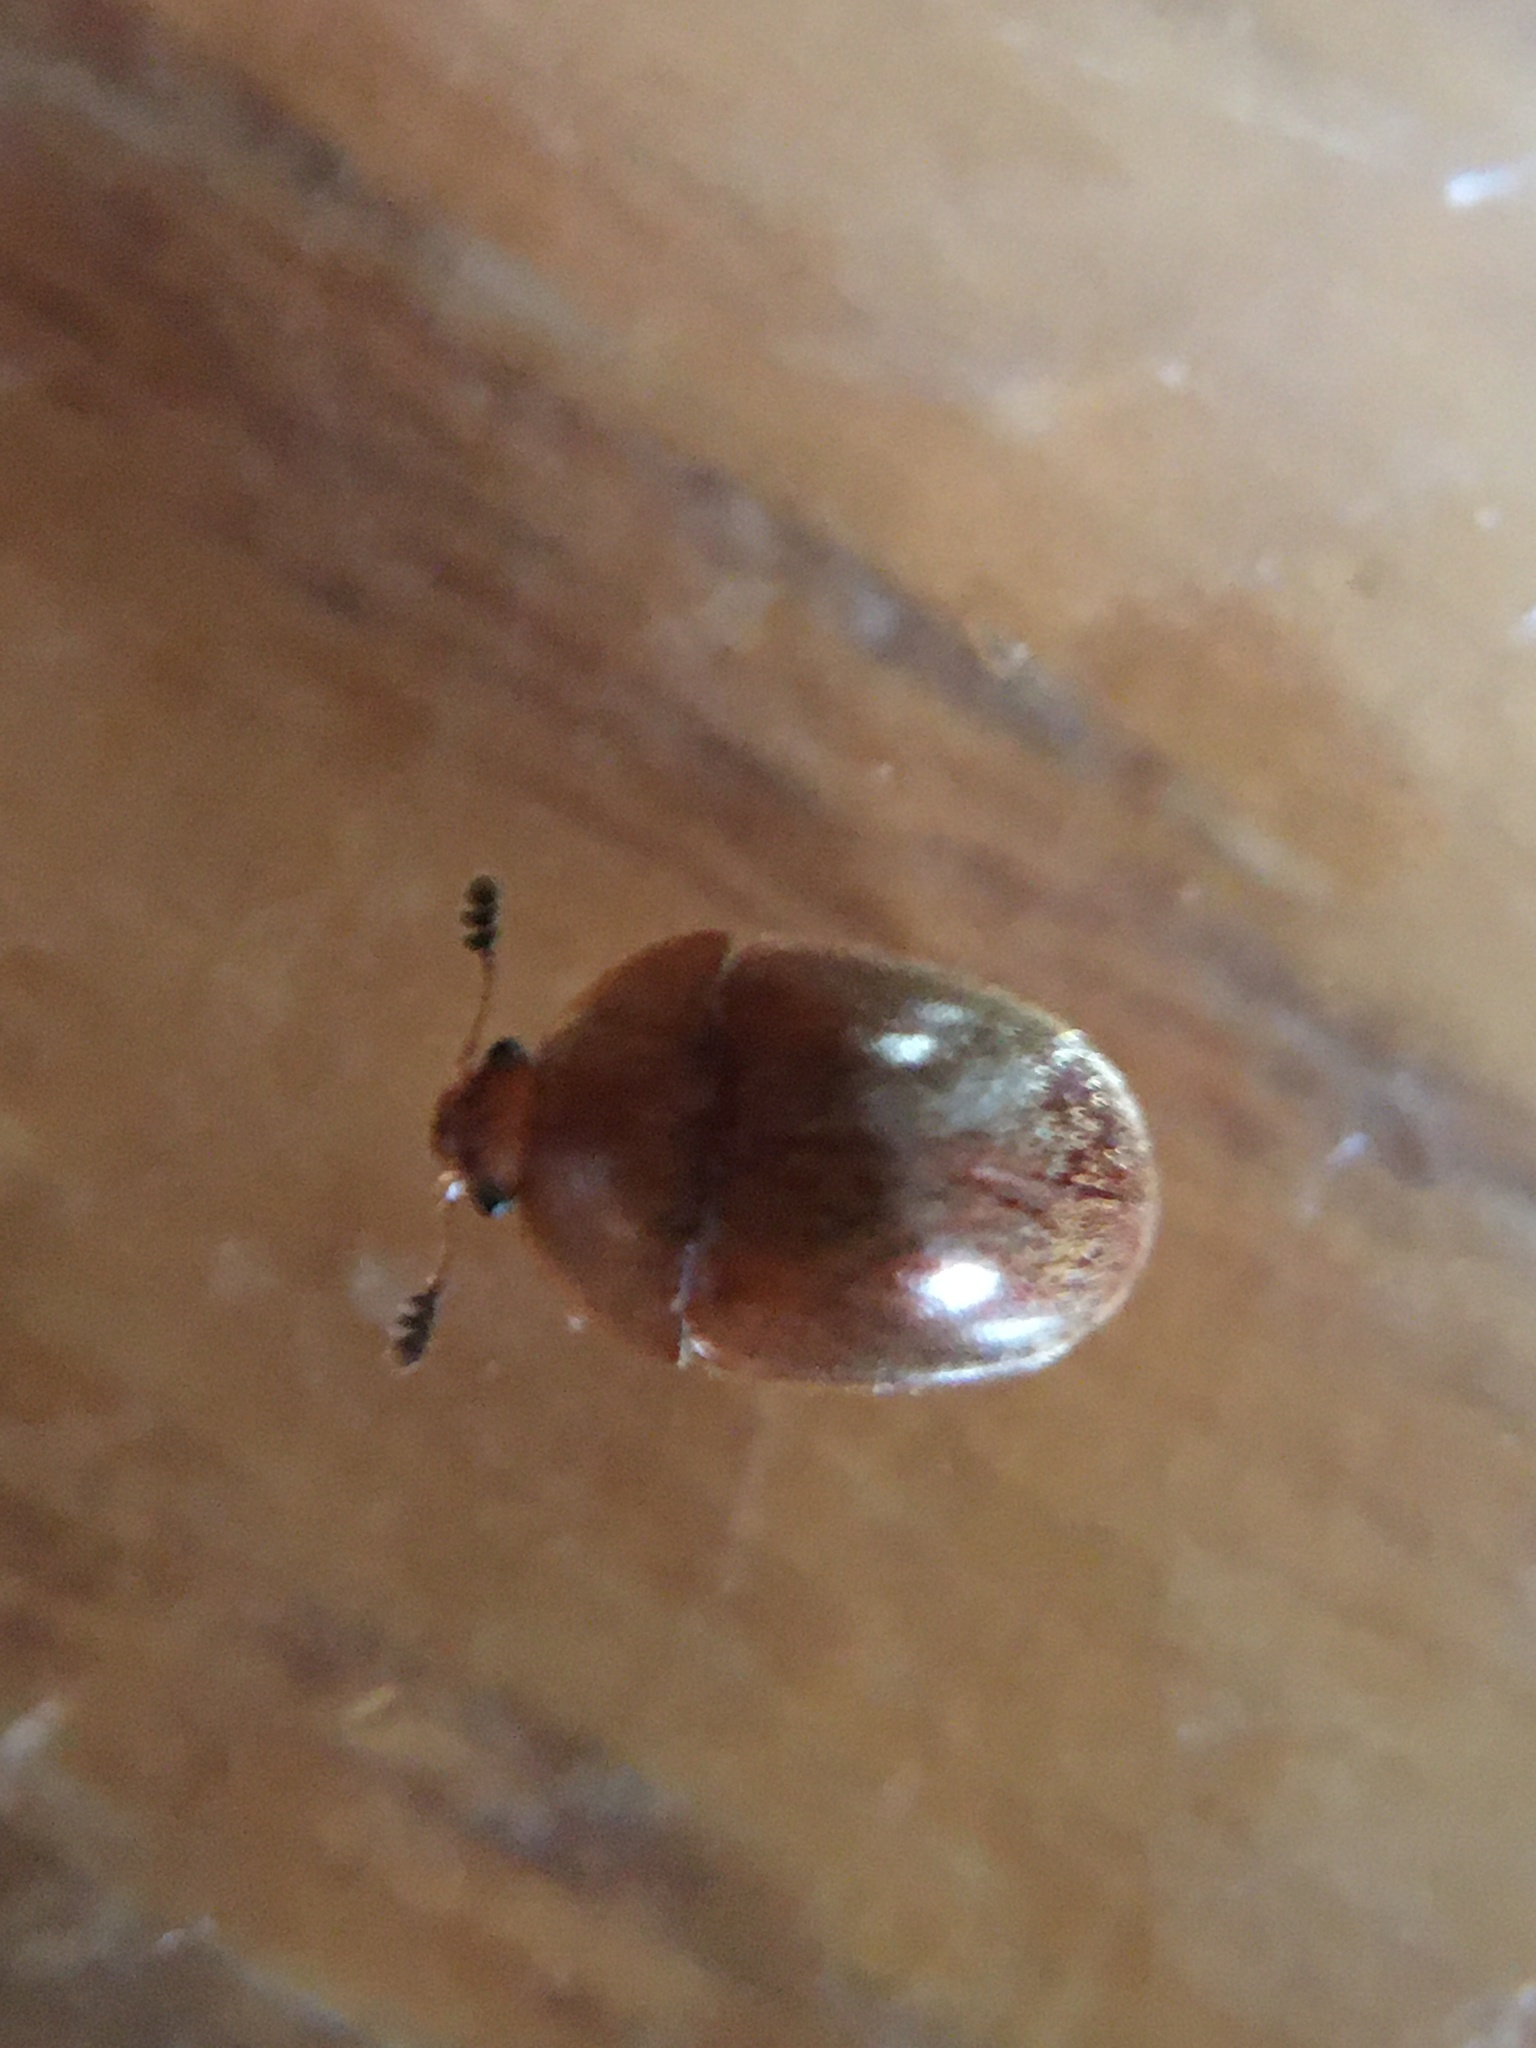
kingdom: Animalia
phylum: Arthropoda
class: Insecta
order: Coleoptera
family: Nitidulidae
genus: Cychramus
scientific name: Cychramus luteus
